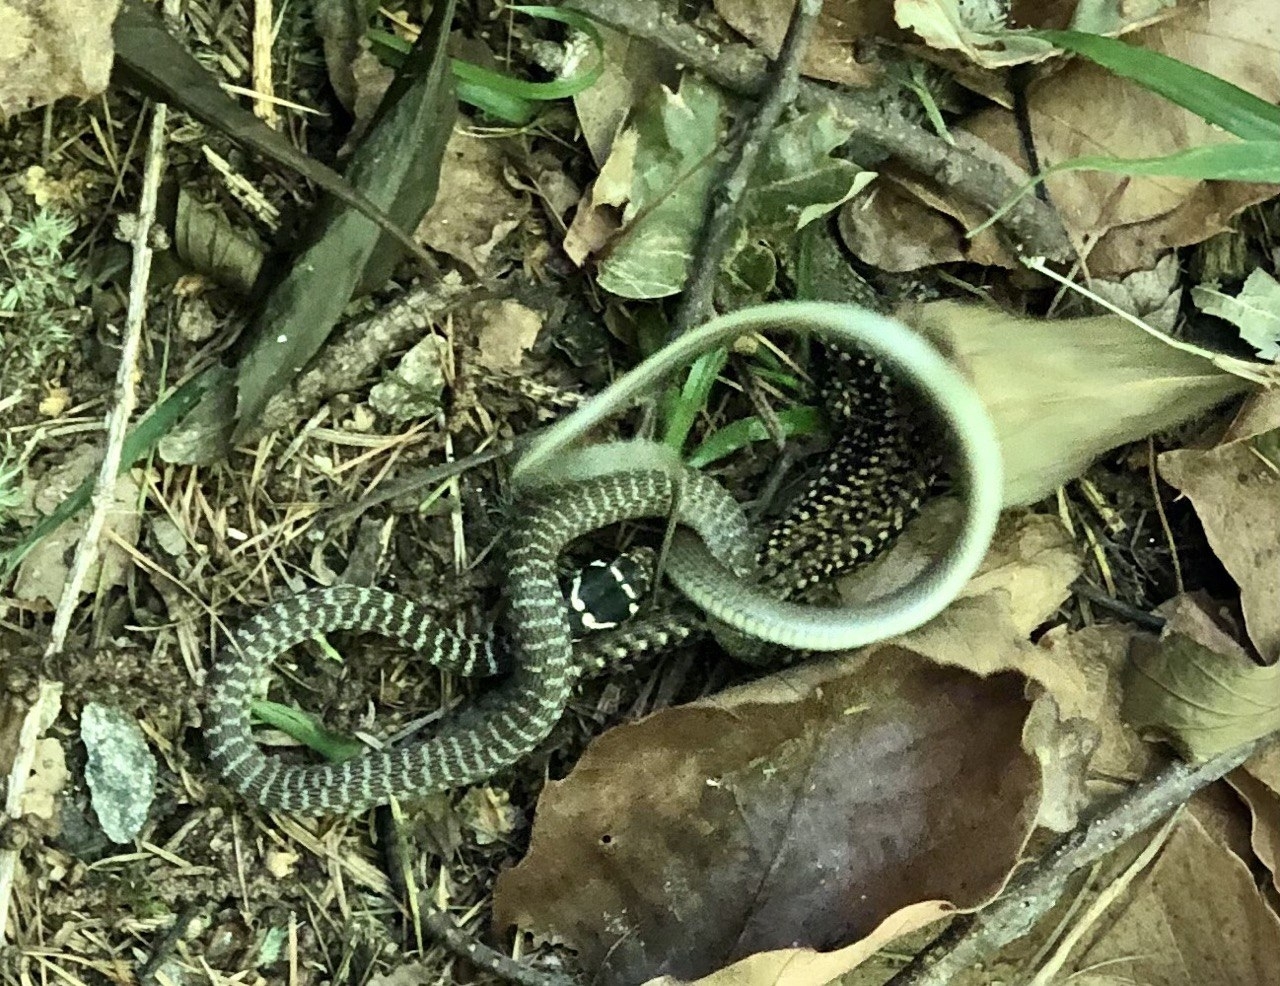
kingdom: Animalia
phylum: Chordata
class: Squamata
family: Colubridae
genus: Hierophis
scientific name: Hierophis viridiflavus
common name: Green whip snake
